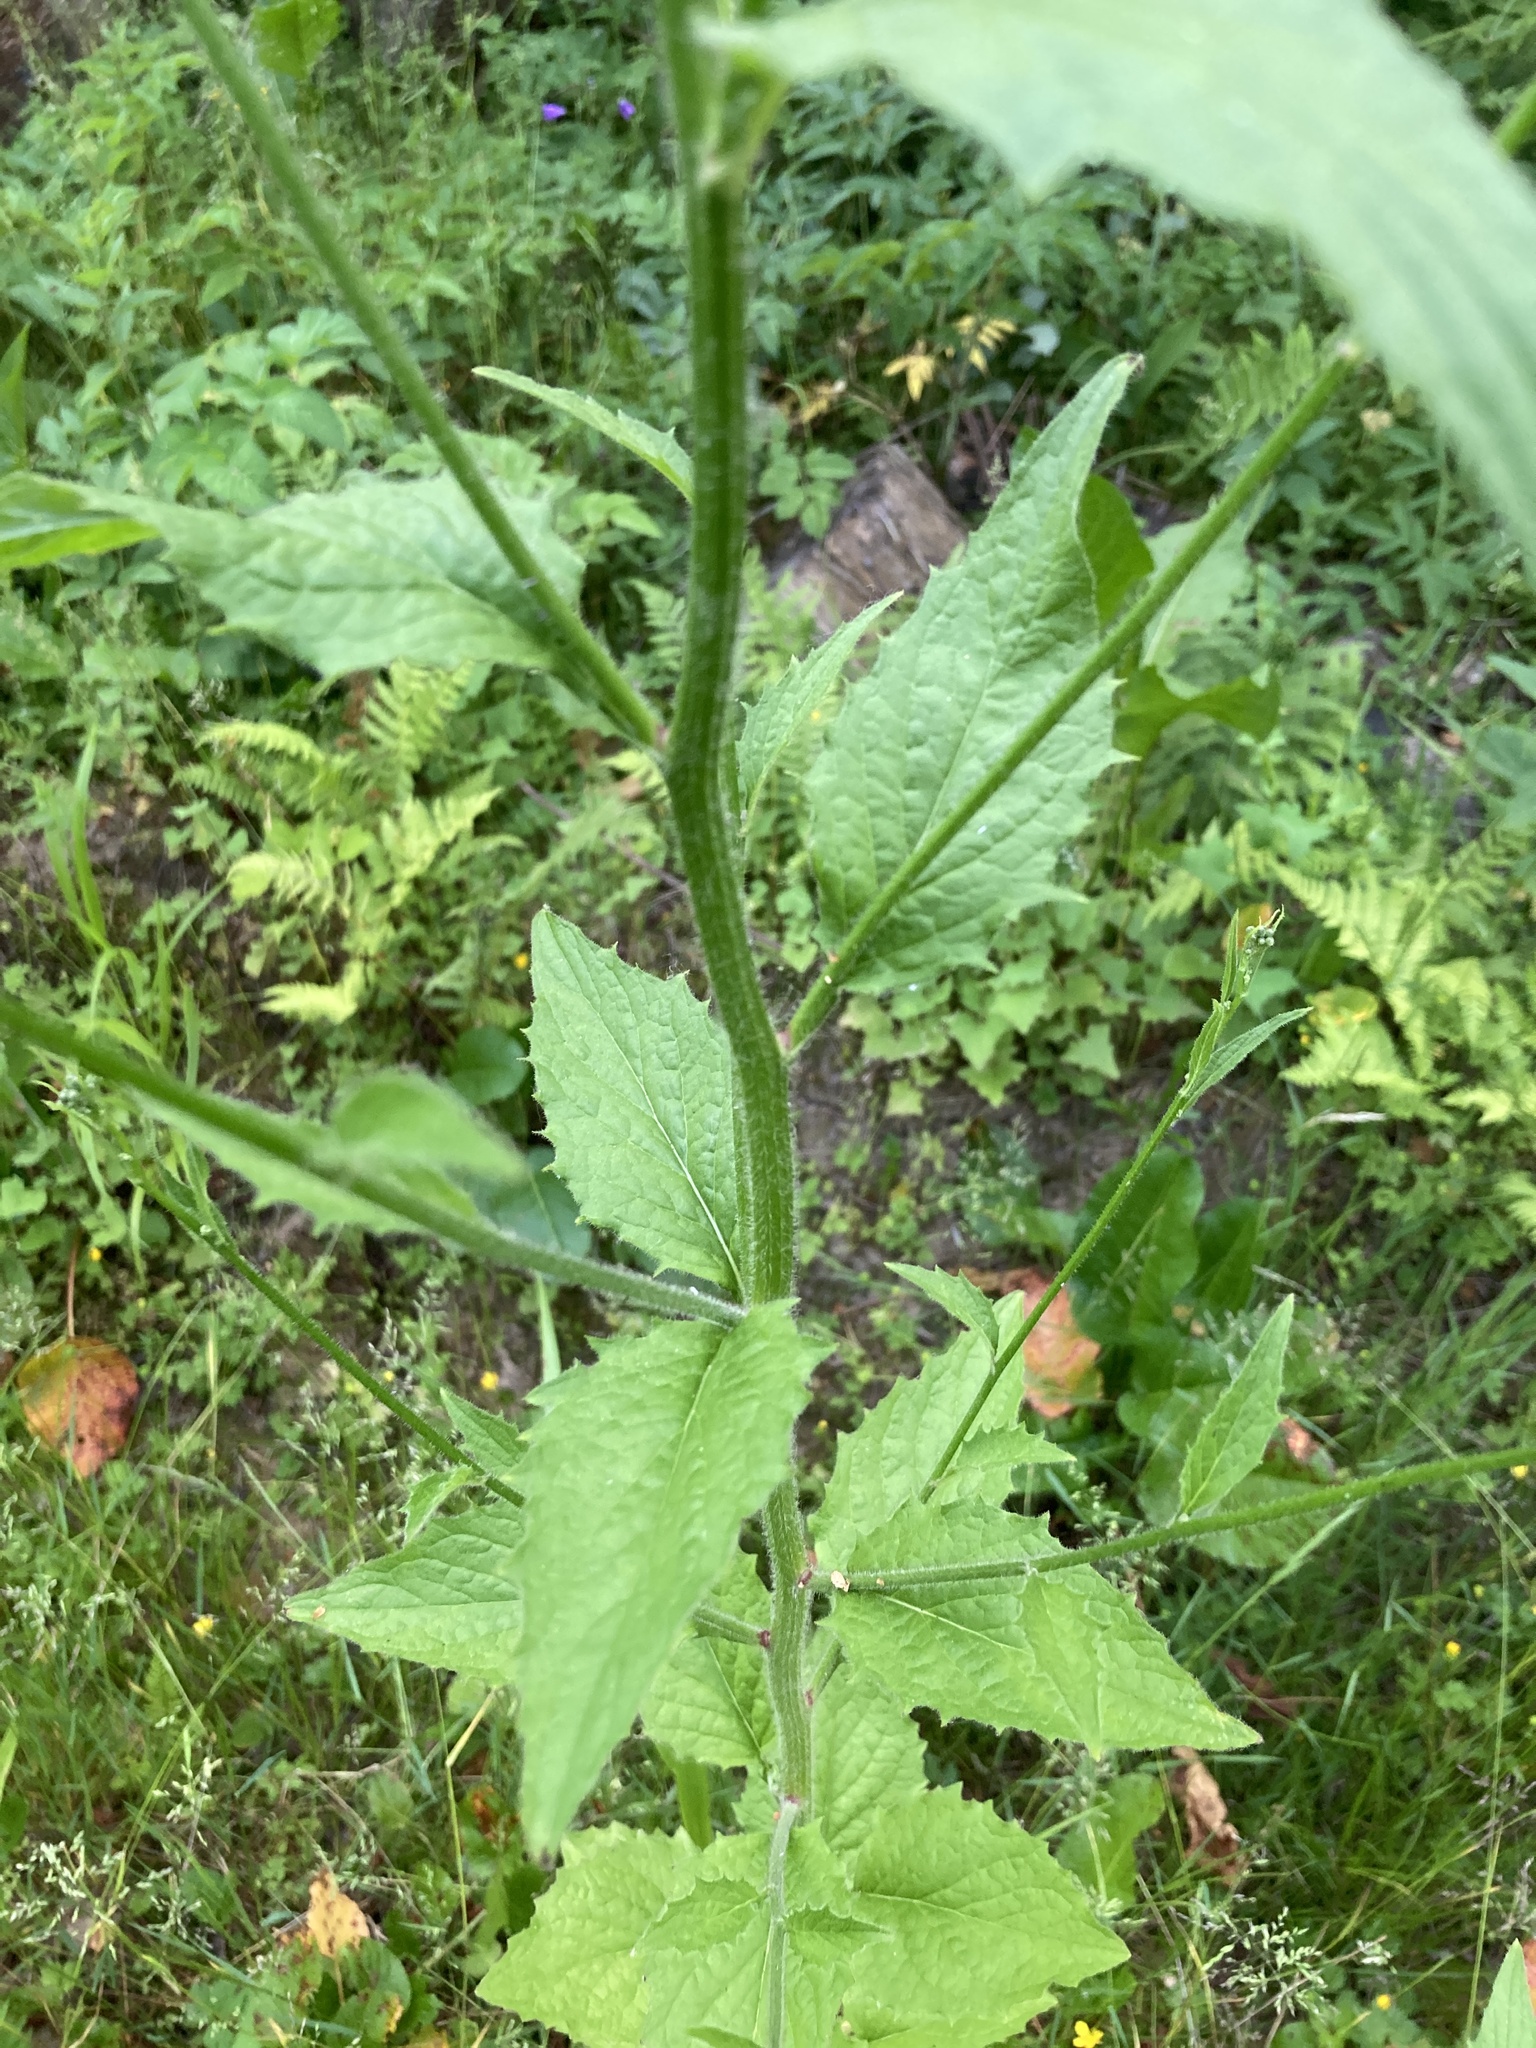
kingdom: Plantae
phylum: Tracheophyta
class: Magnoliopsida
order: Asterales
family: Asteraceae
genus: Lapsana
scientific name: Lapsana communis
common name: Nipplewort
